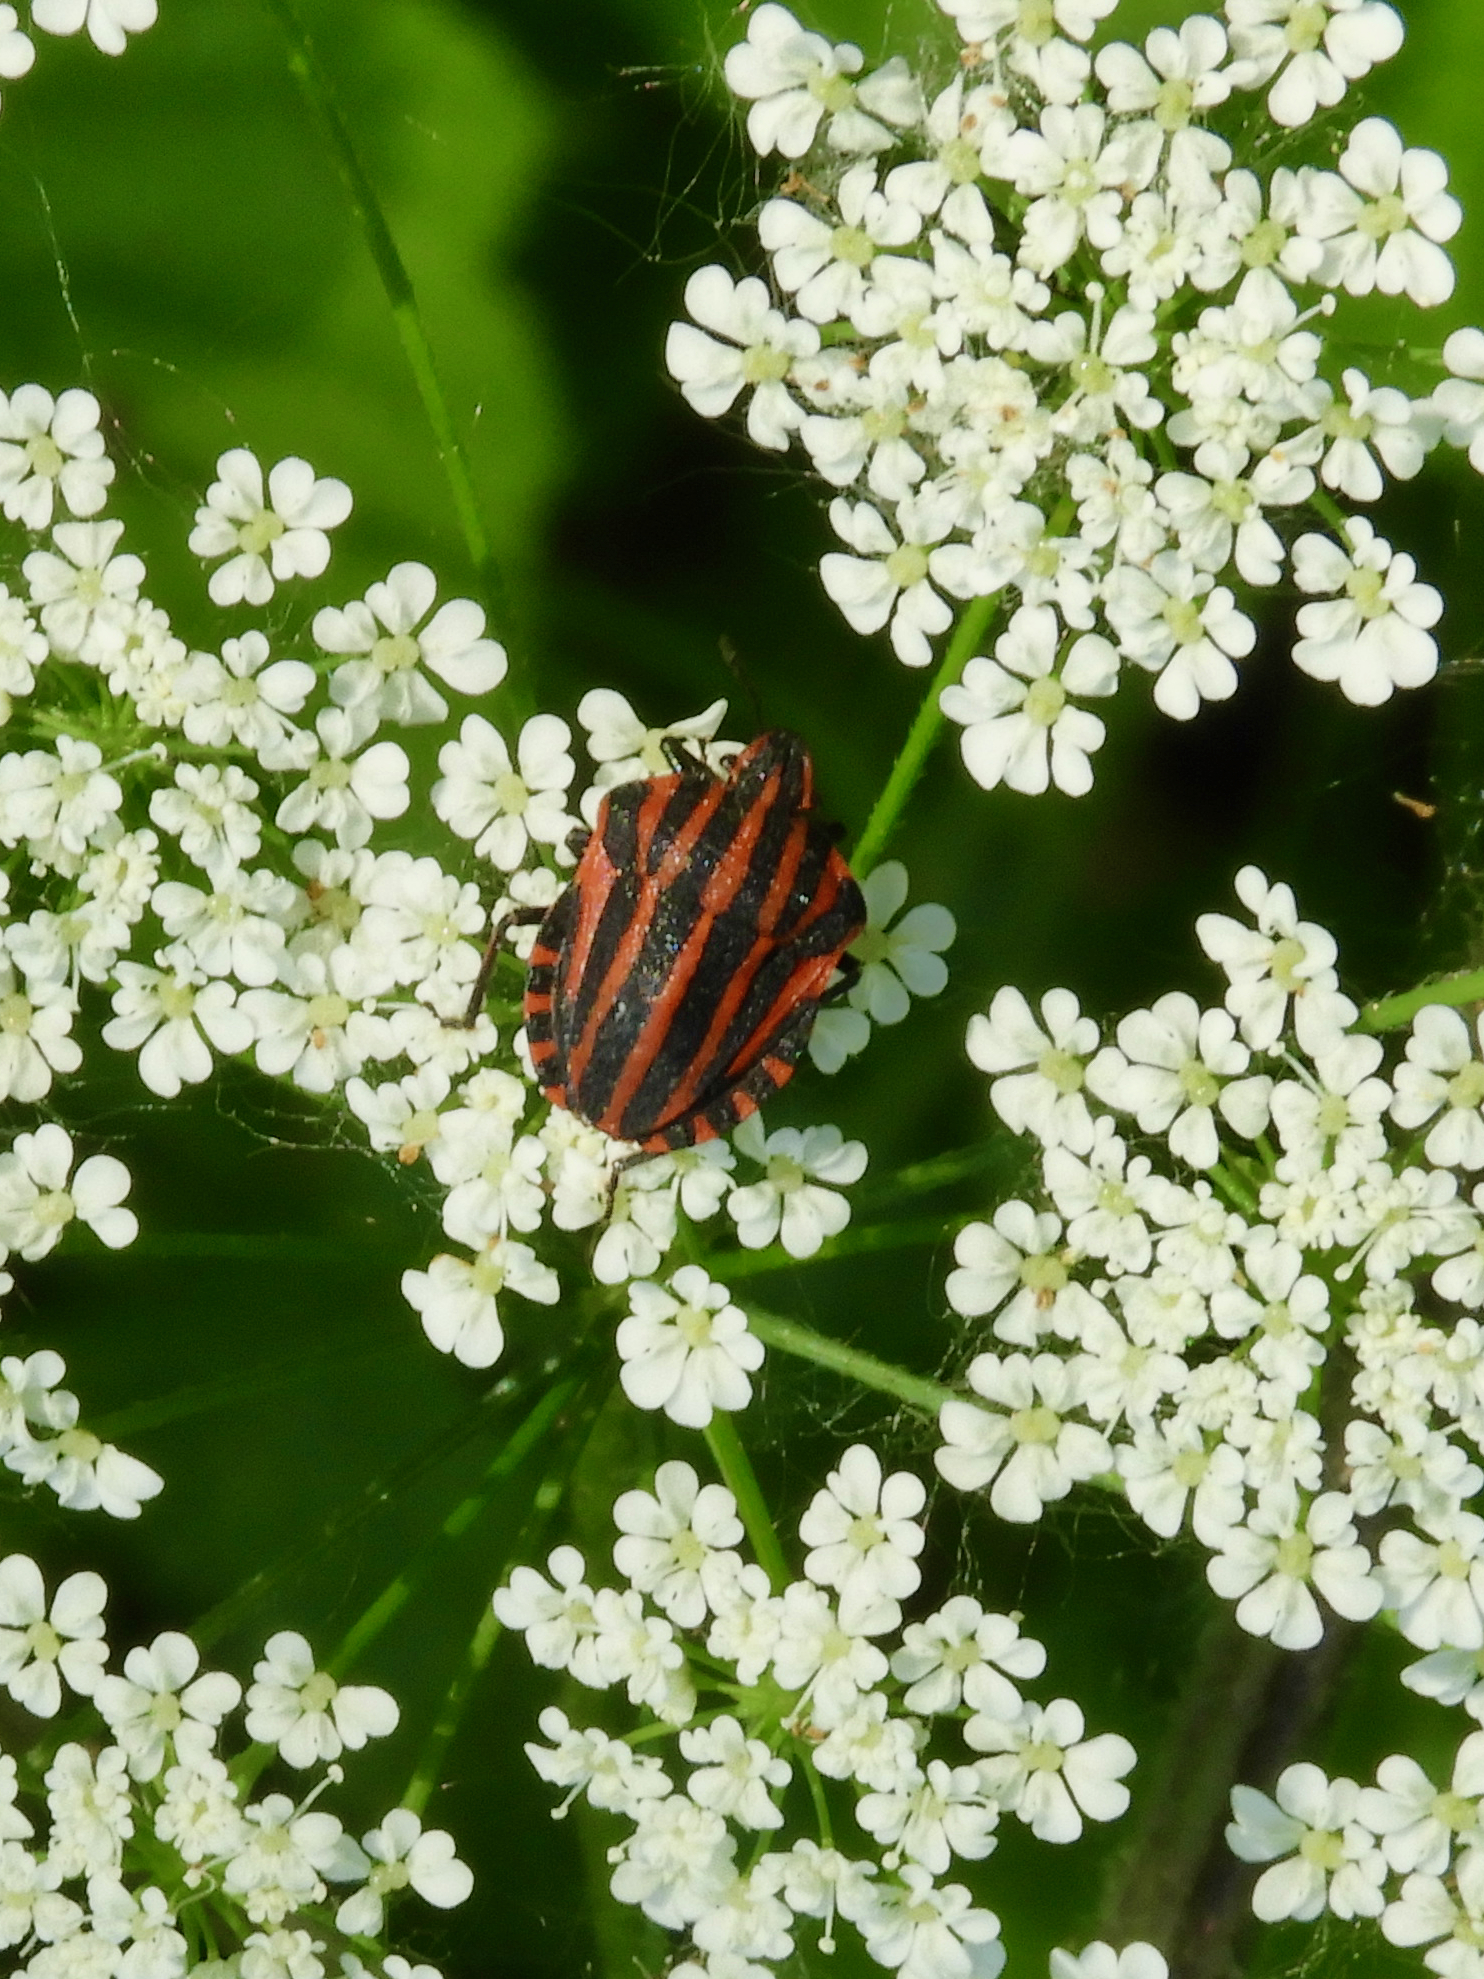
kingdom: Animalia
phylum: Arthropoda
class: Insecta
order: Hemiptera
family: Pentatomidae
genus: Graphosoma
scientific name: Graphosoma italicum
